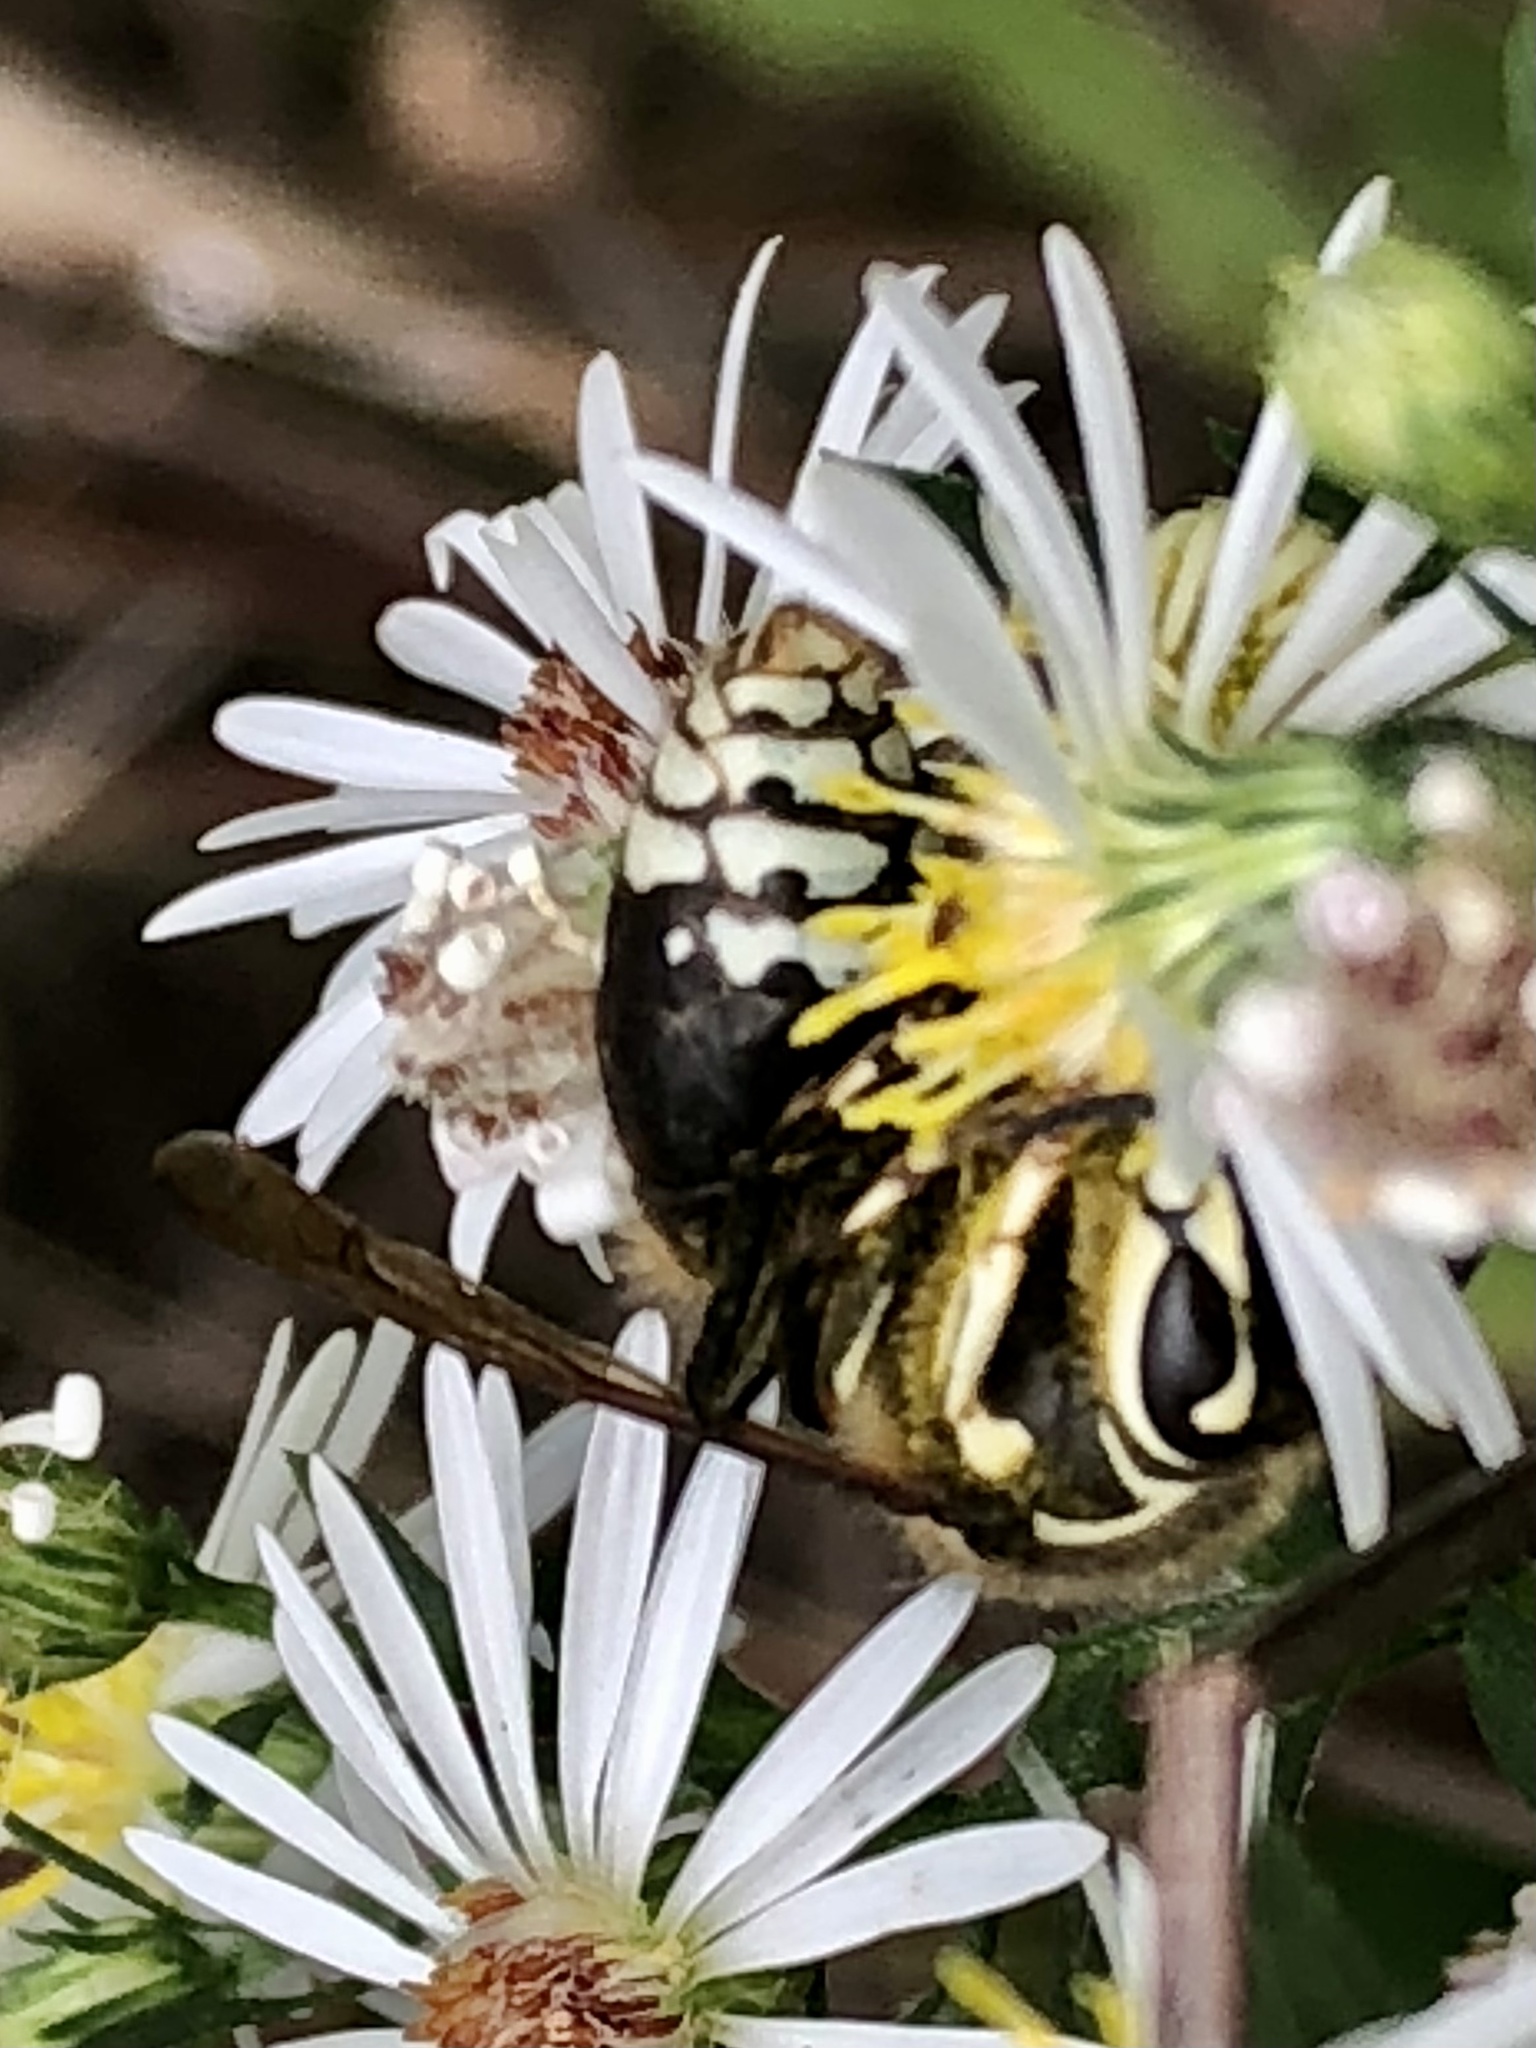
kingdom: Animalia
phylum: Arthropoda
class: Insecta
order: Hymenoptera
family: Vespidae
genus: Dolichovespula
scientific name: Dolichovespula maculata
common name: Bald-faced hornet
